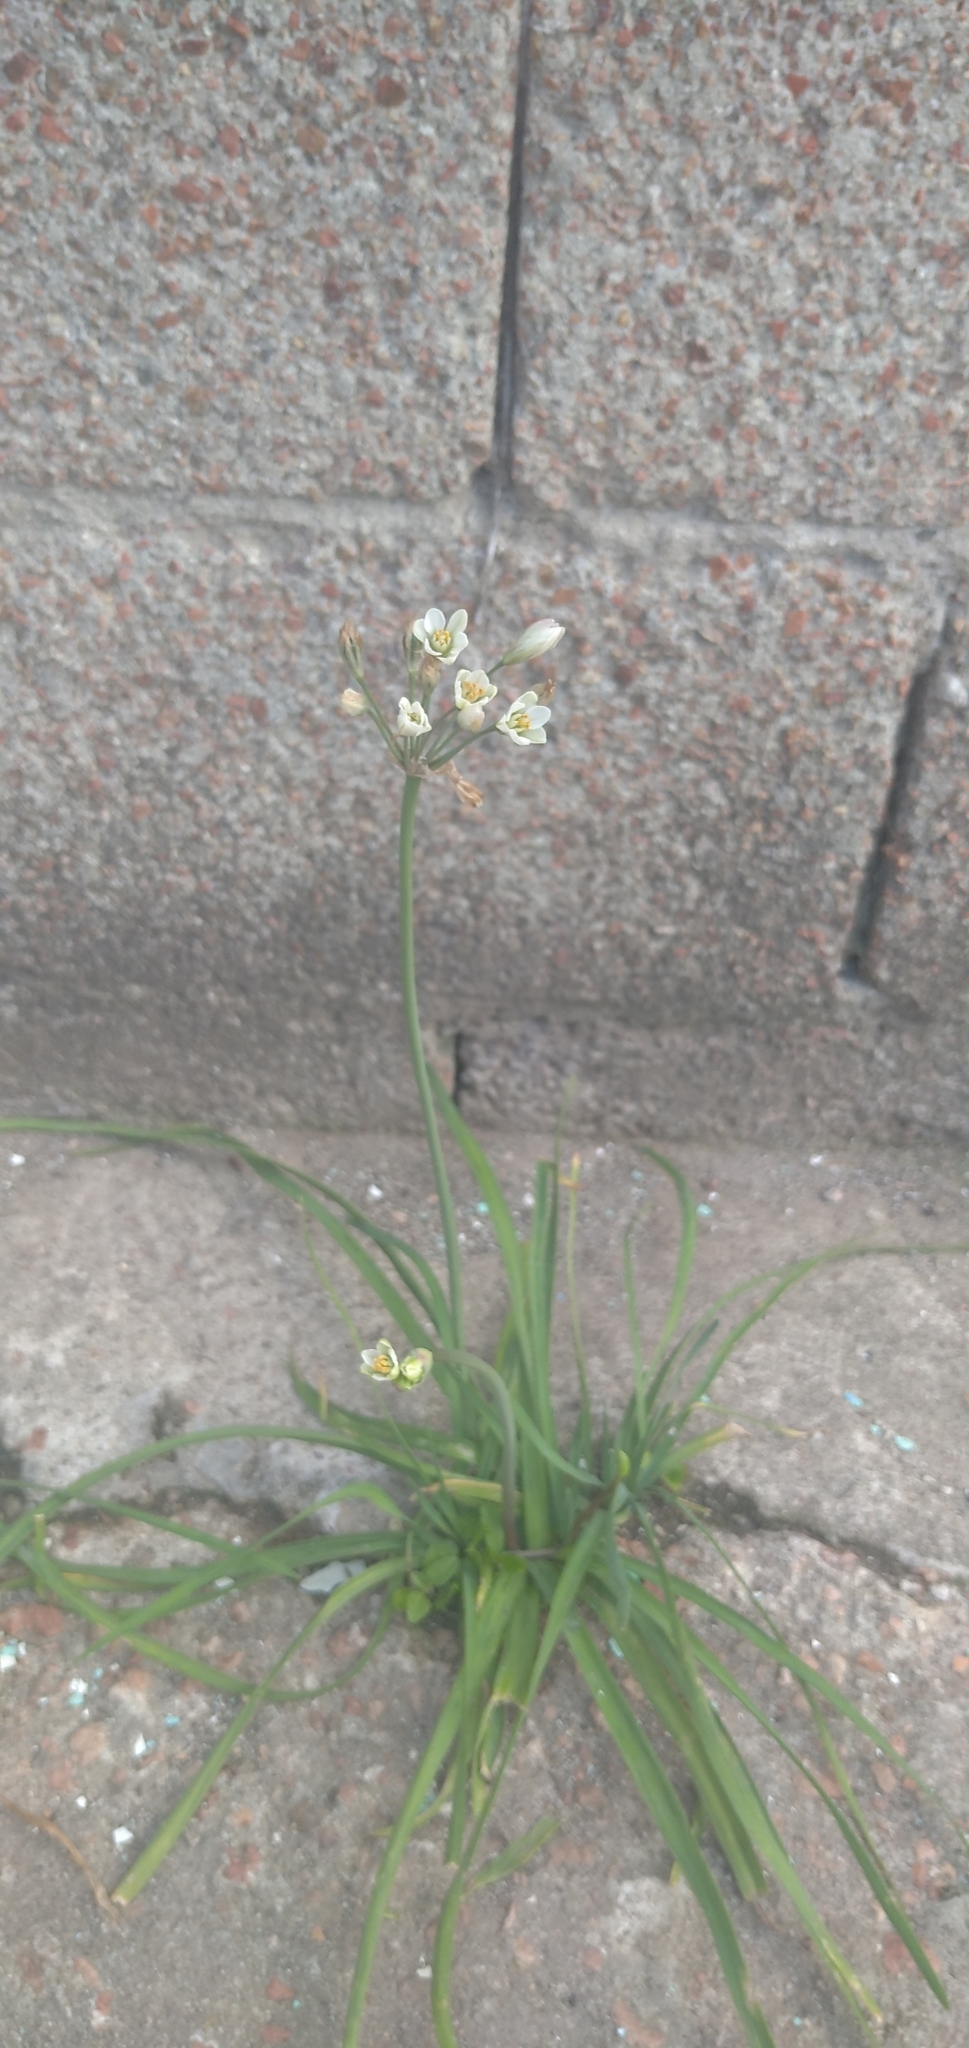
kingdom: Plantae
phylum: Tracheophyta
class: Liliopsida
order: Asparagales
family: Amaryllidaceae
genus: Nothoscordum
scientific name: Nothoscordum gracile
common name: Slender false garlic
